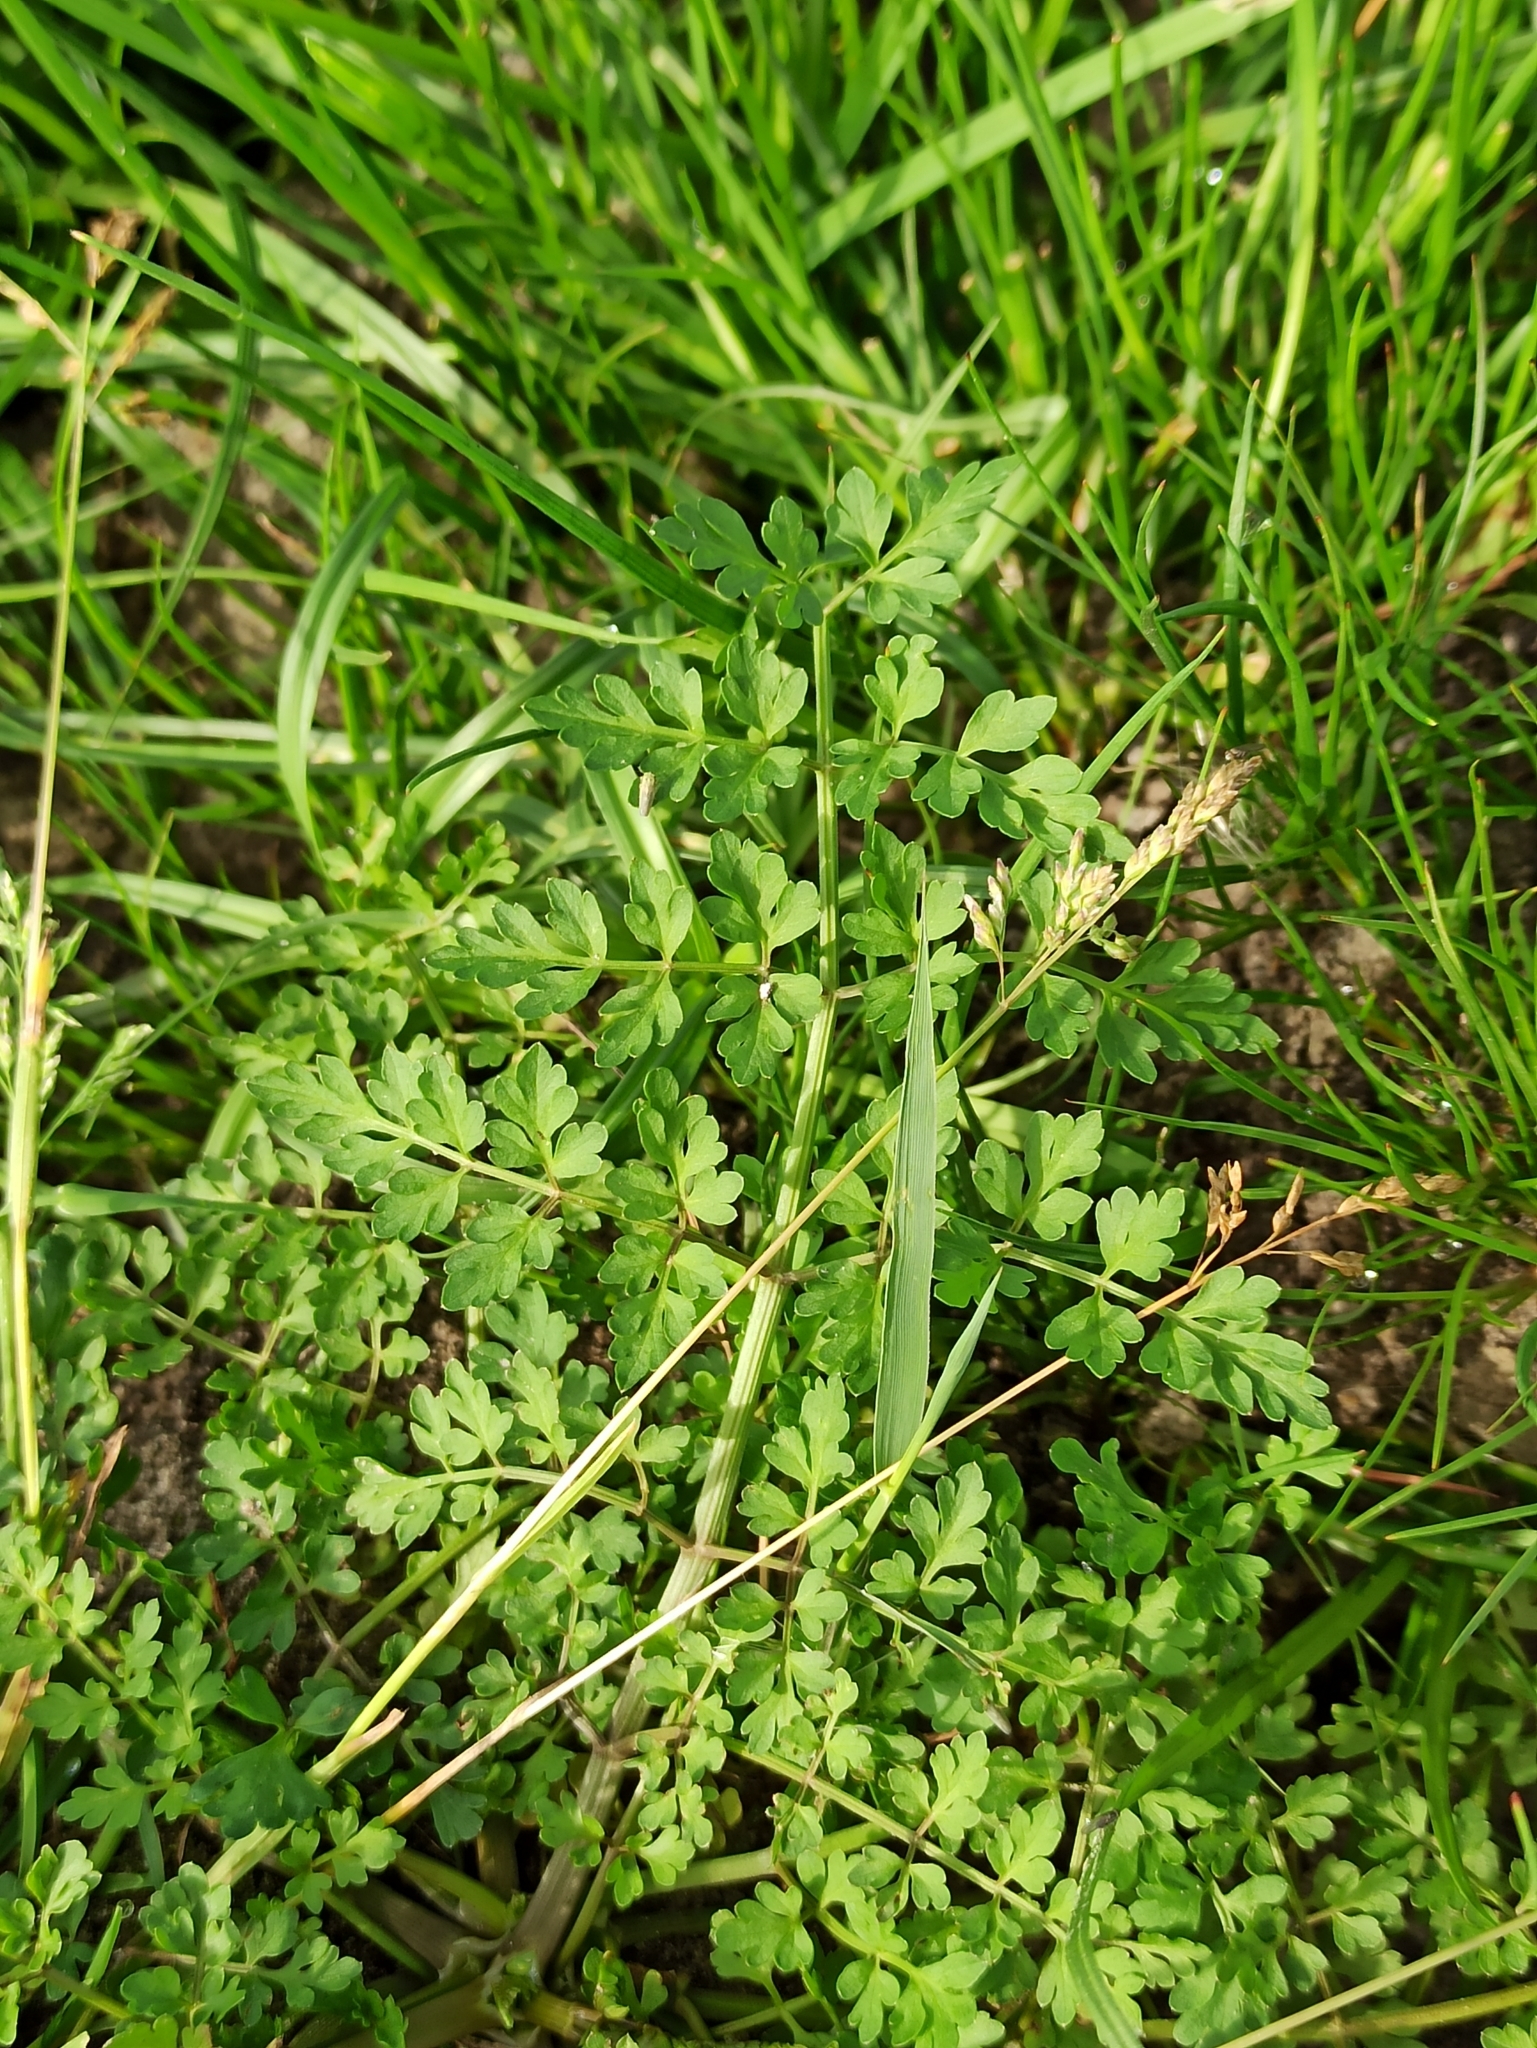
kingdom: Plantae
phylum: Tracheophyta
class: Magnoliopsida
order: Apiales
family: Apiaceae
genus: Oenanthe
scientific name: Oenanthe aquatica
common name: Fine-leaved water-dropwort
